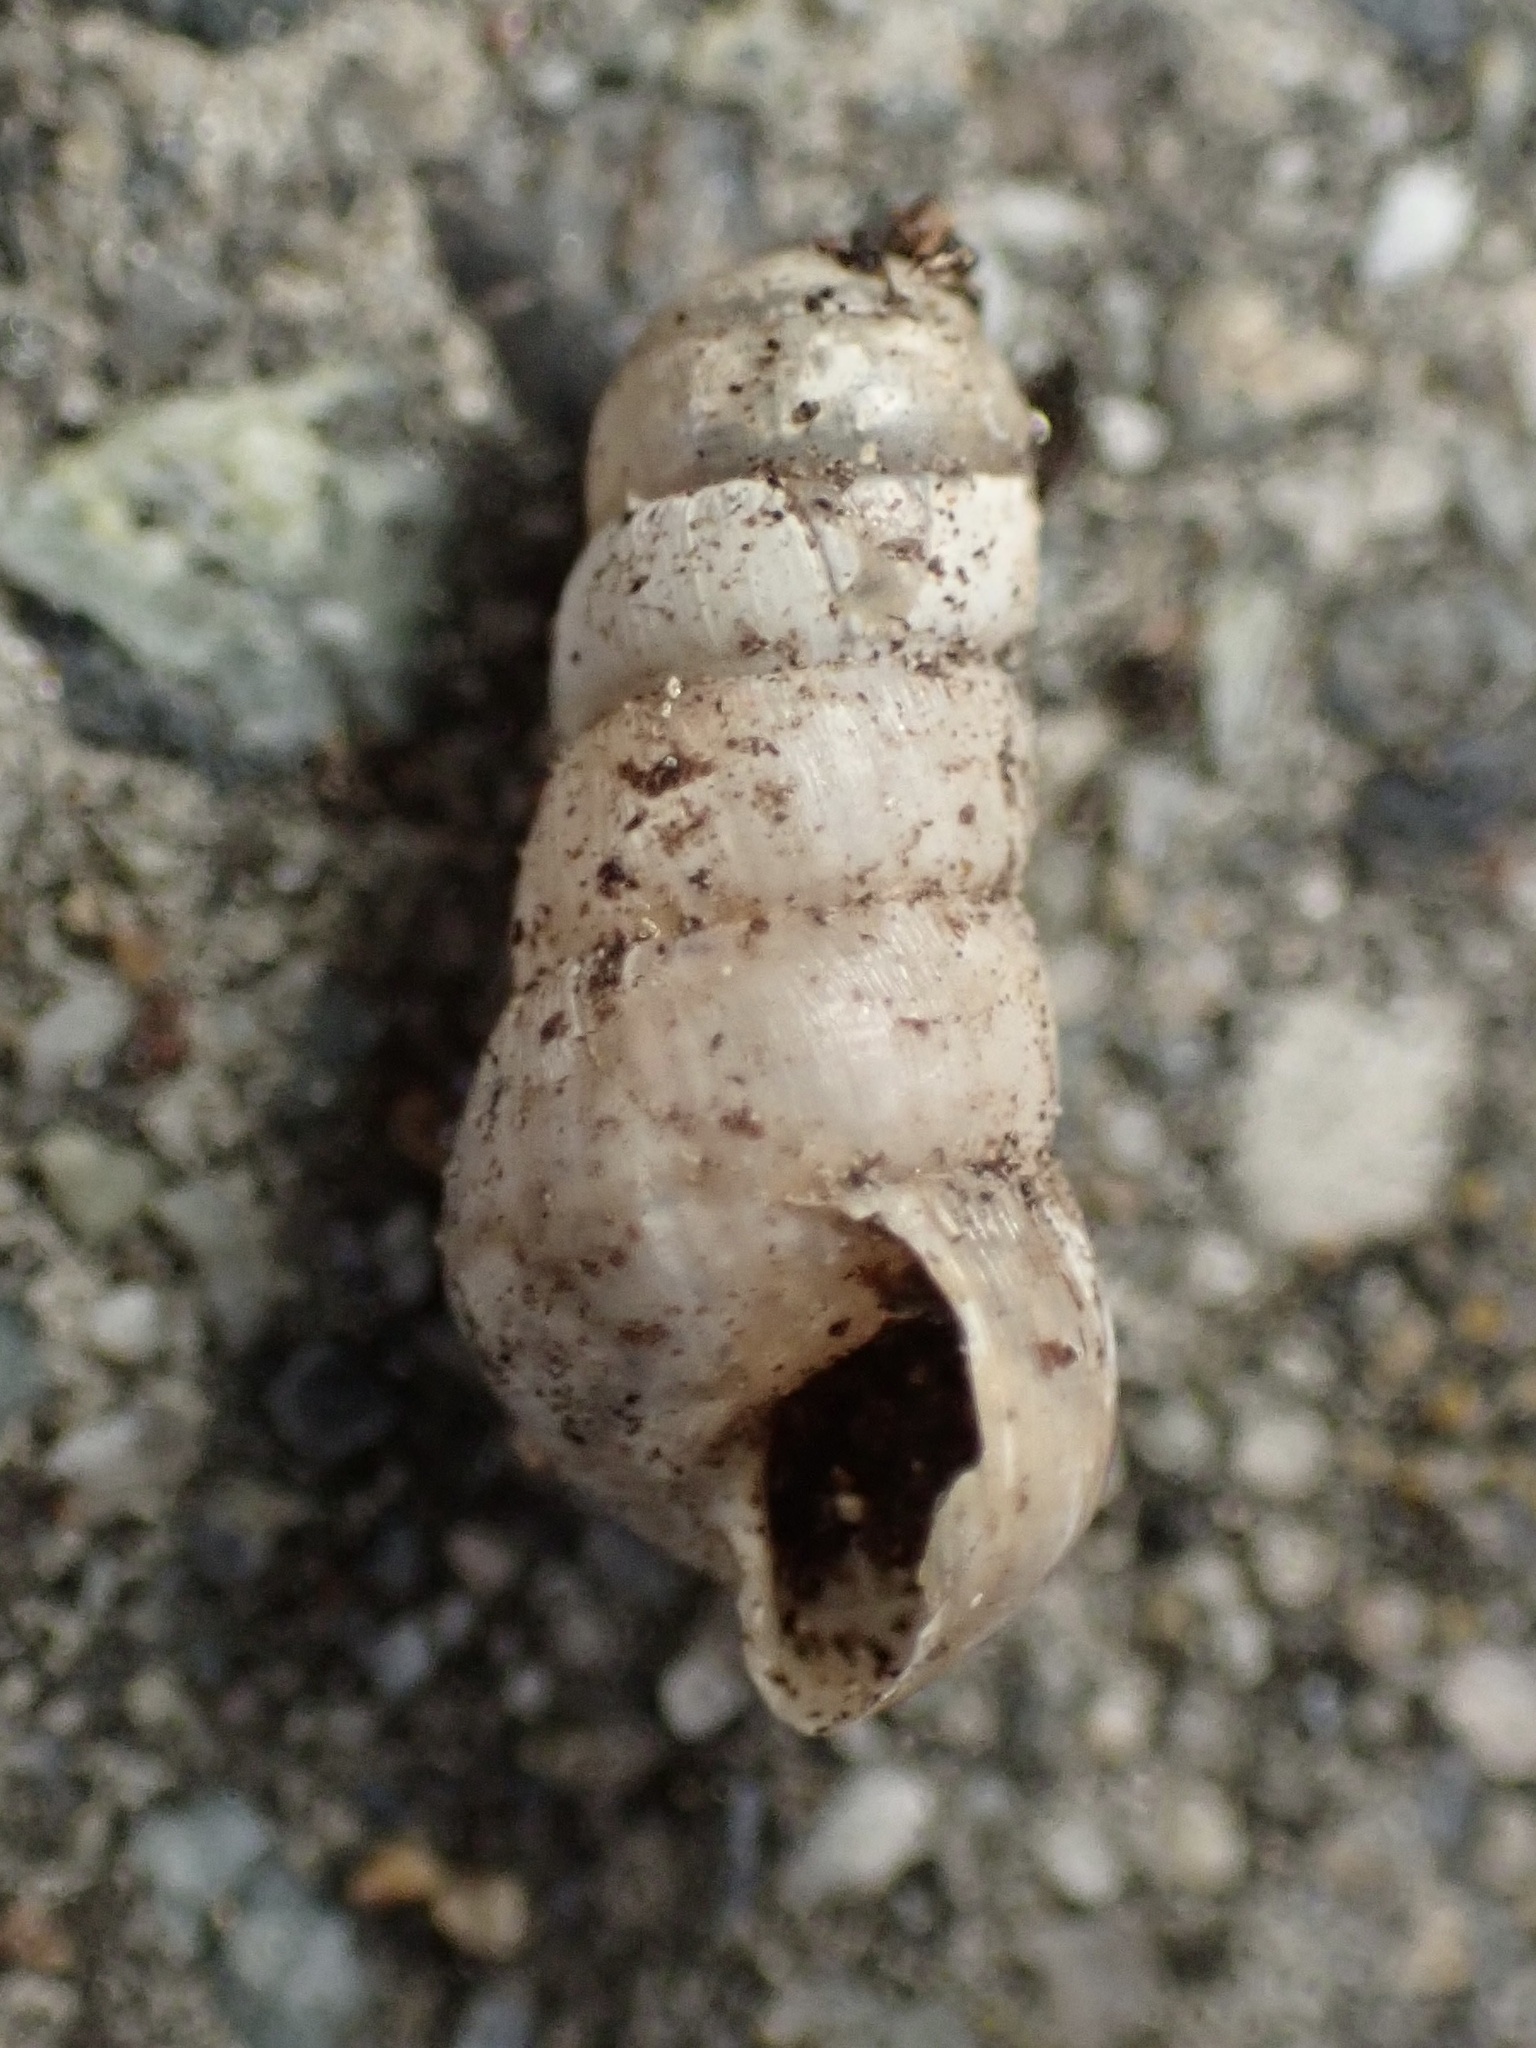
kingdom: Animalia
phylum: Mollusca
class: Gastropoda
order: Stylommatophora
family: Achatinidae
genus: Rumina
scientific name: Rumina decollata
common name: Decollate snail
